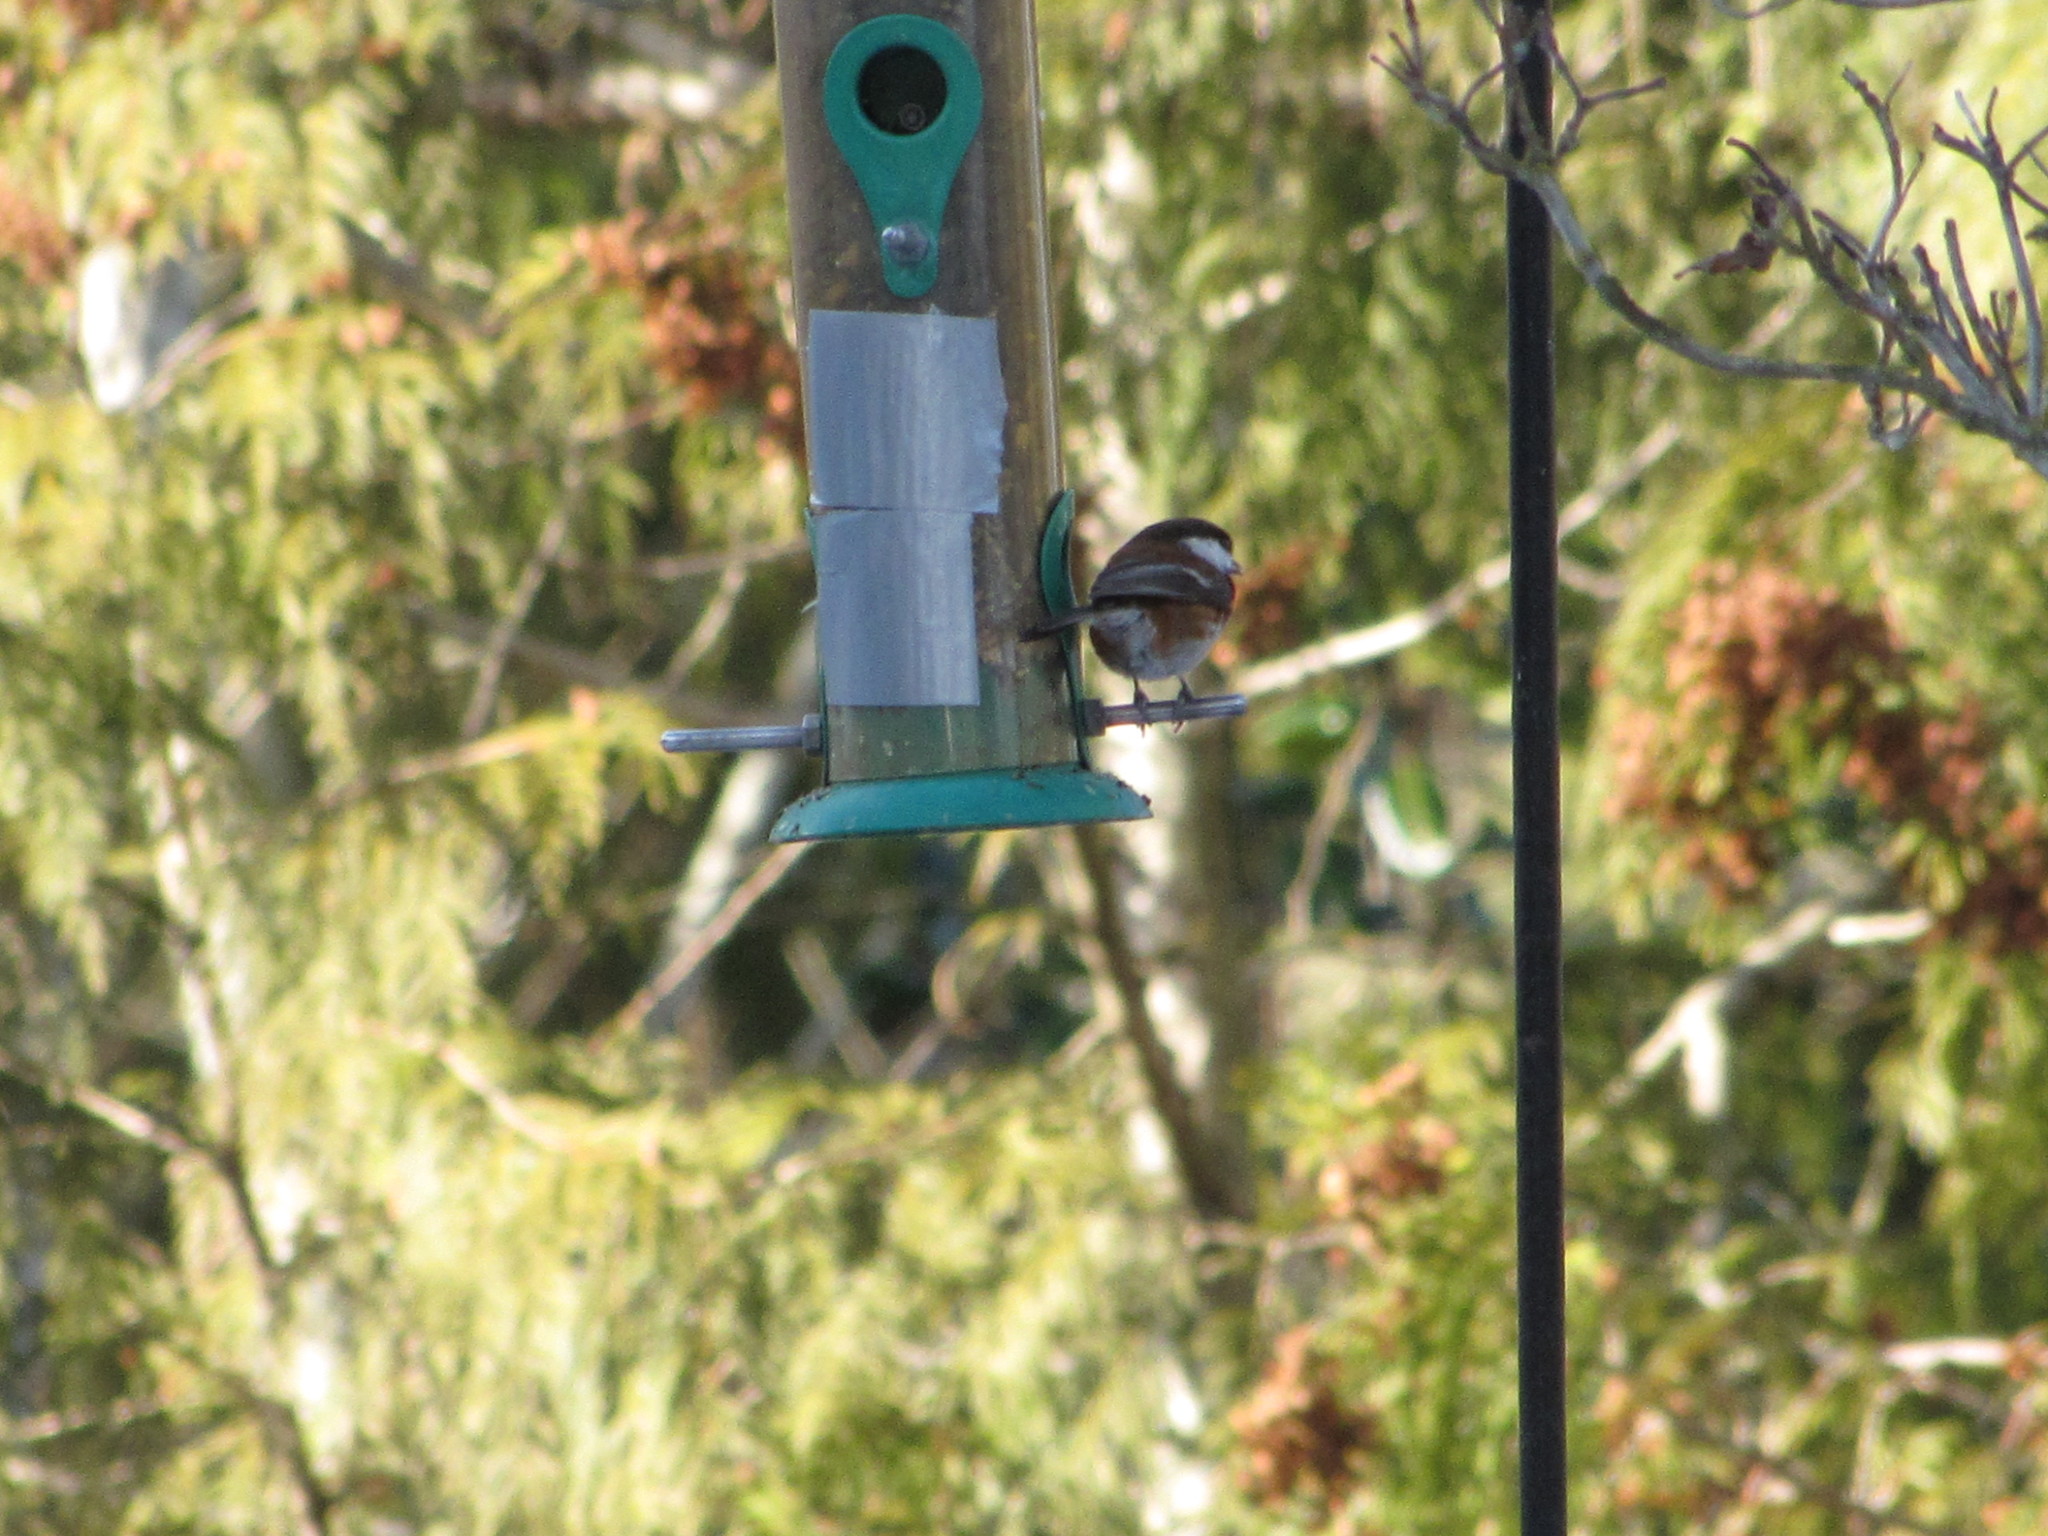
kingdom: Animalia
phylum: Chordata
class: Aves
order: Passeriformes
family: Paridae
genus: Poecile
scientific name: Poecile rufescens
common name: Chestnut-backed chickadee
